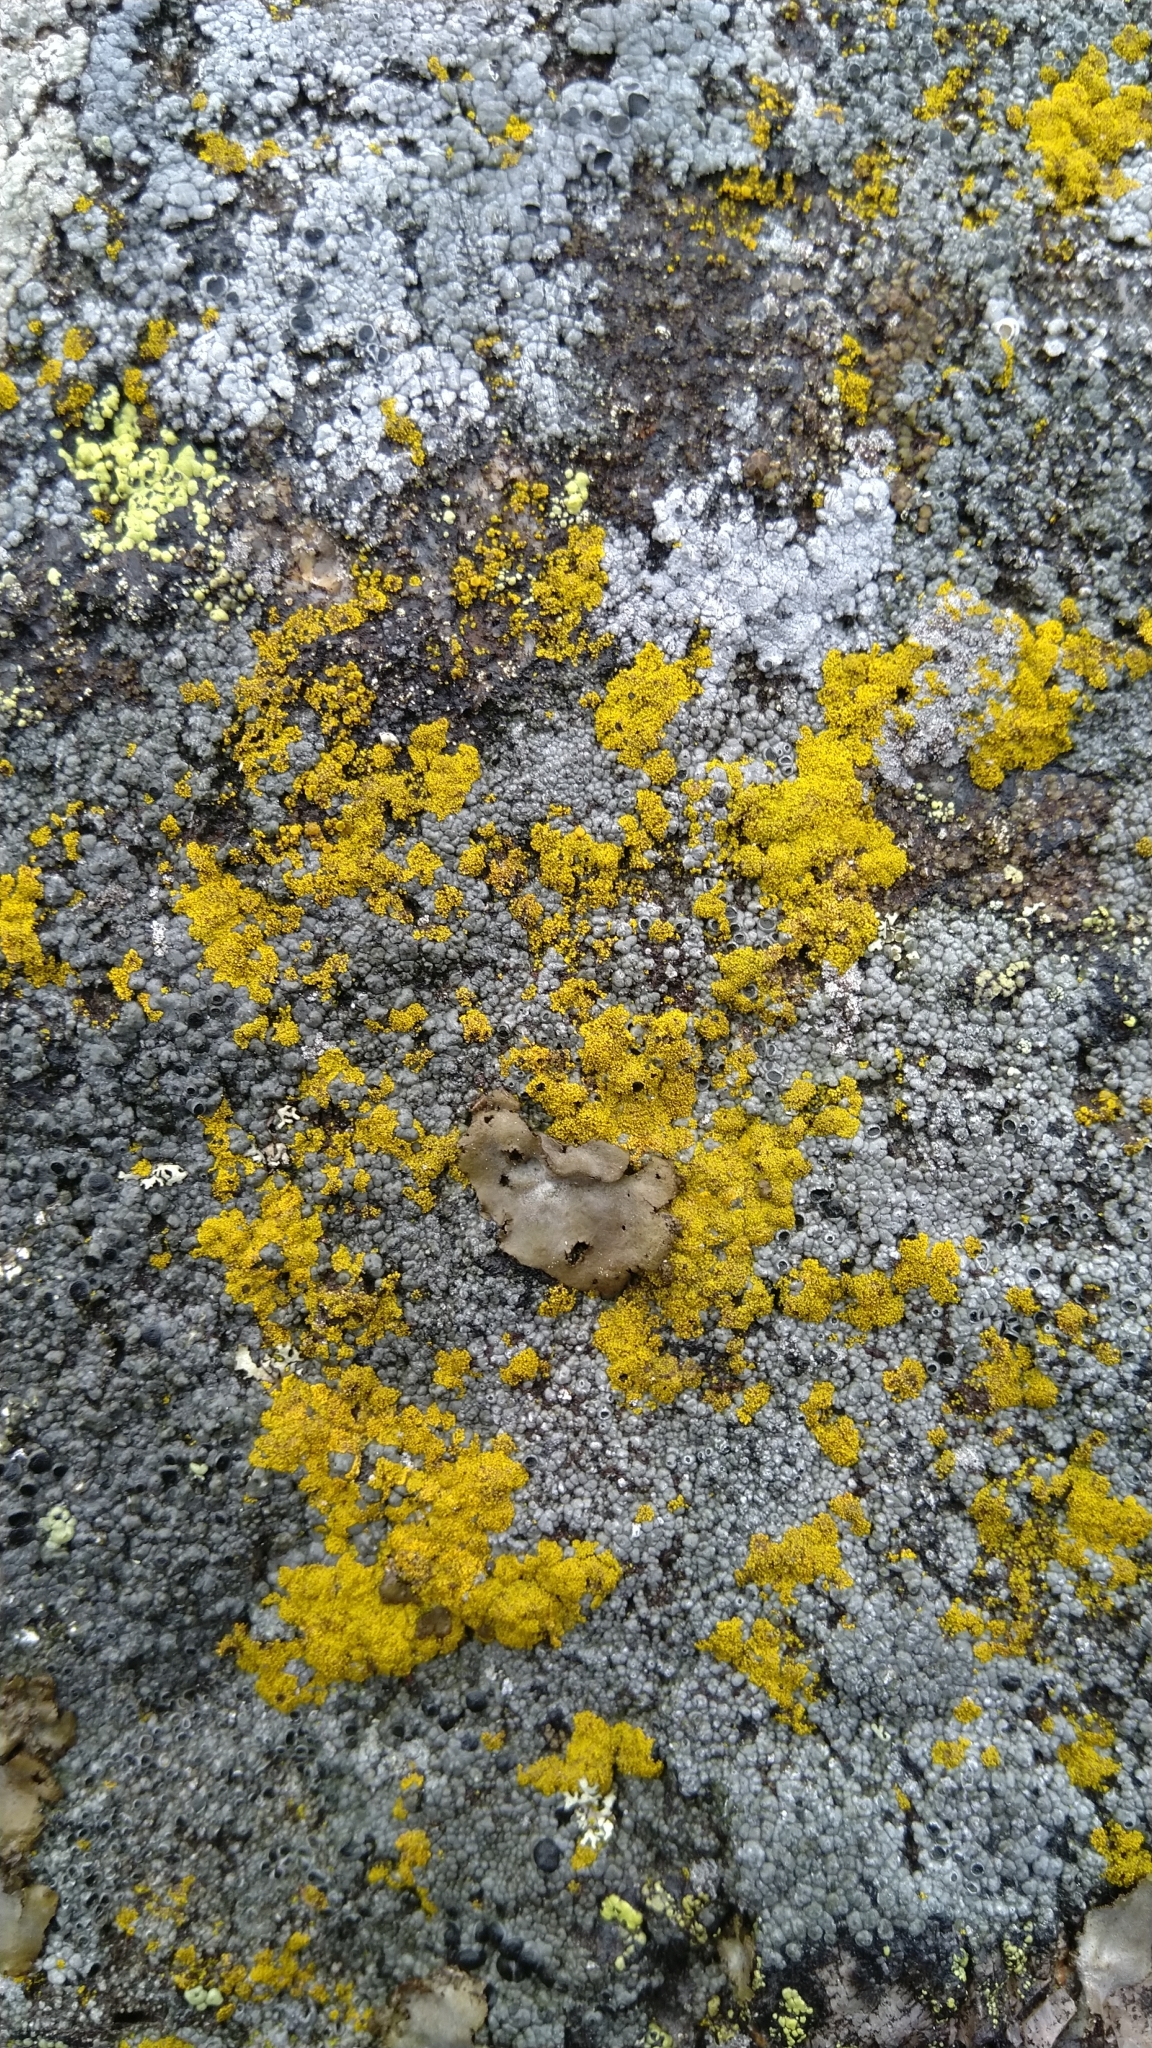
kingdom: Fungi
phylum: Ascomycota
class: Candelariomycetes
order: Candelariales
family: Candelariaceae
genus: Candelariella
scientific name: Candelariella
